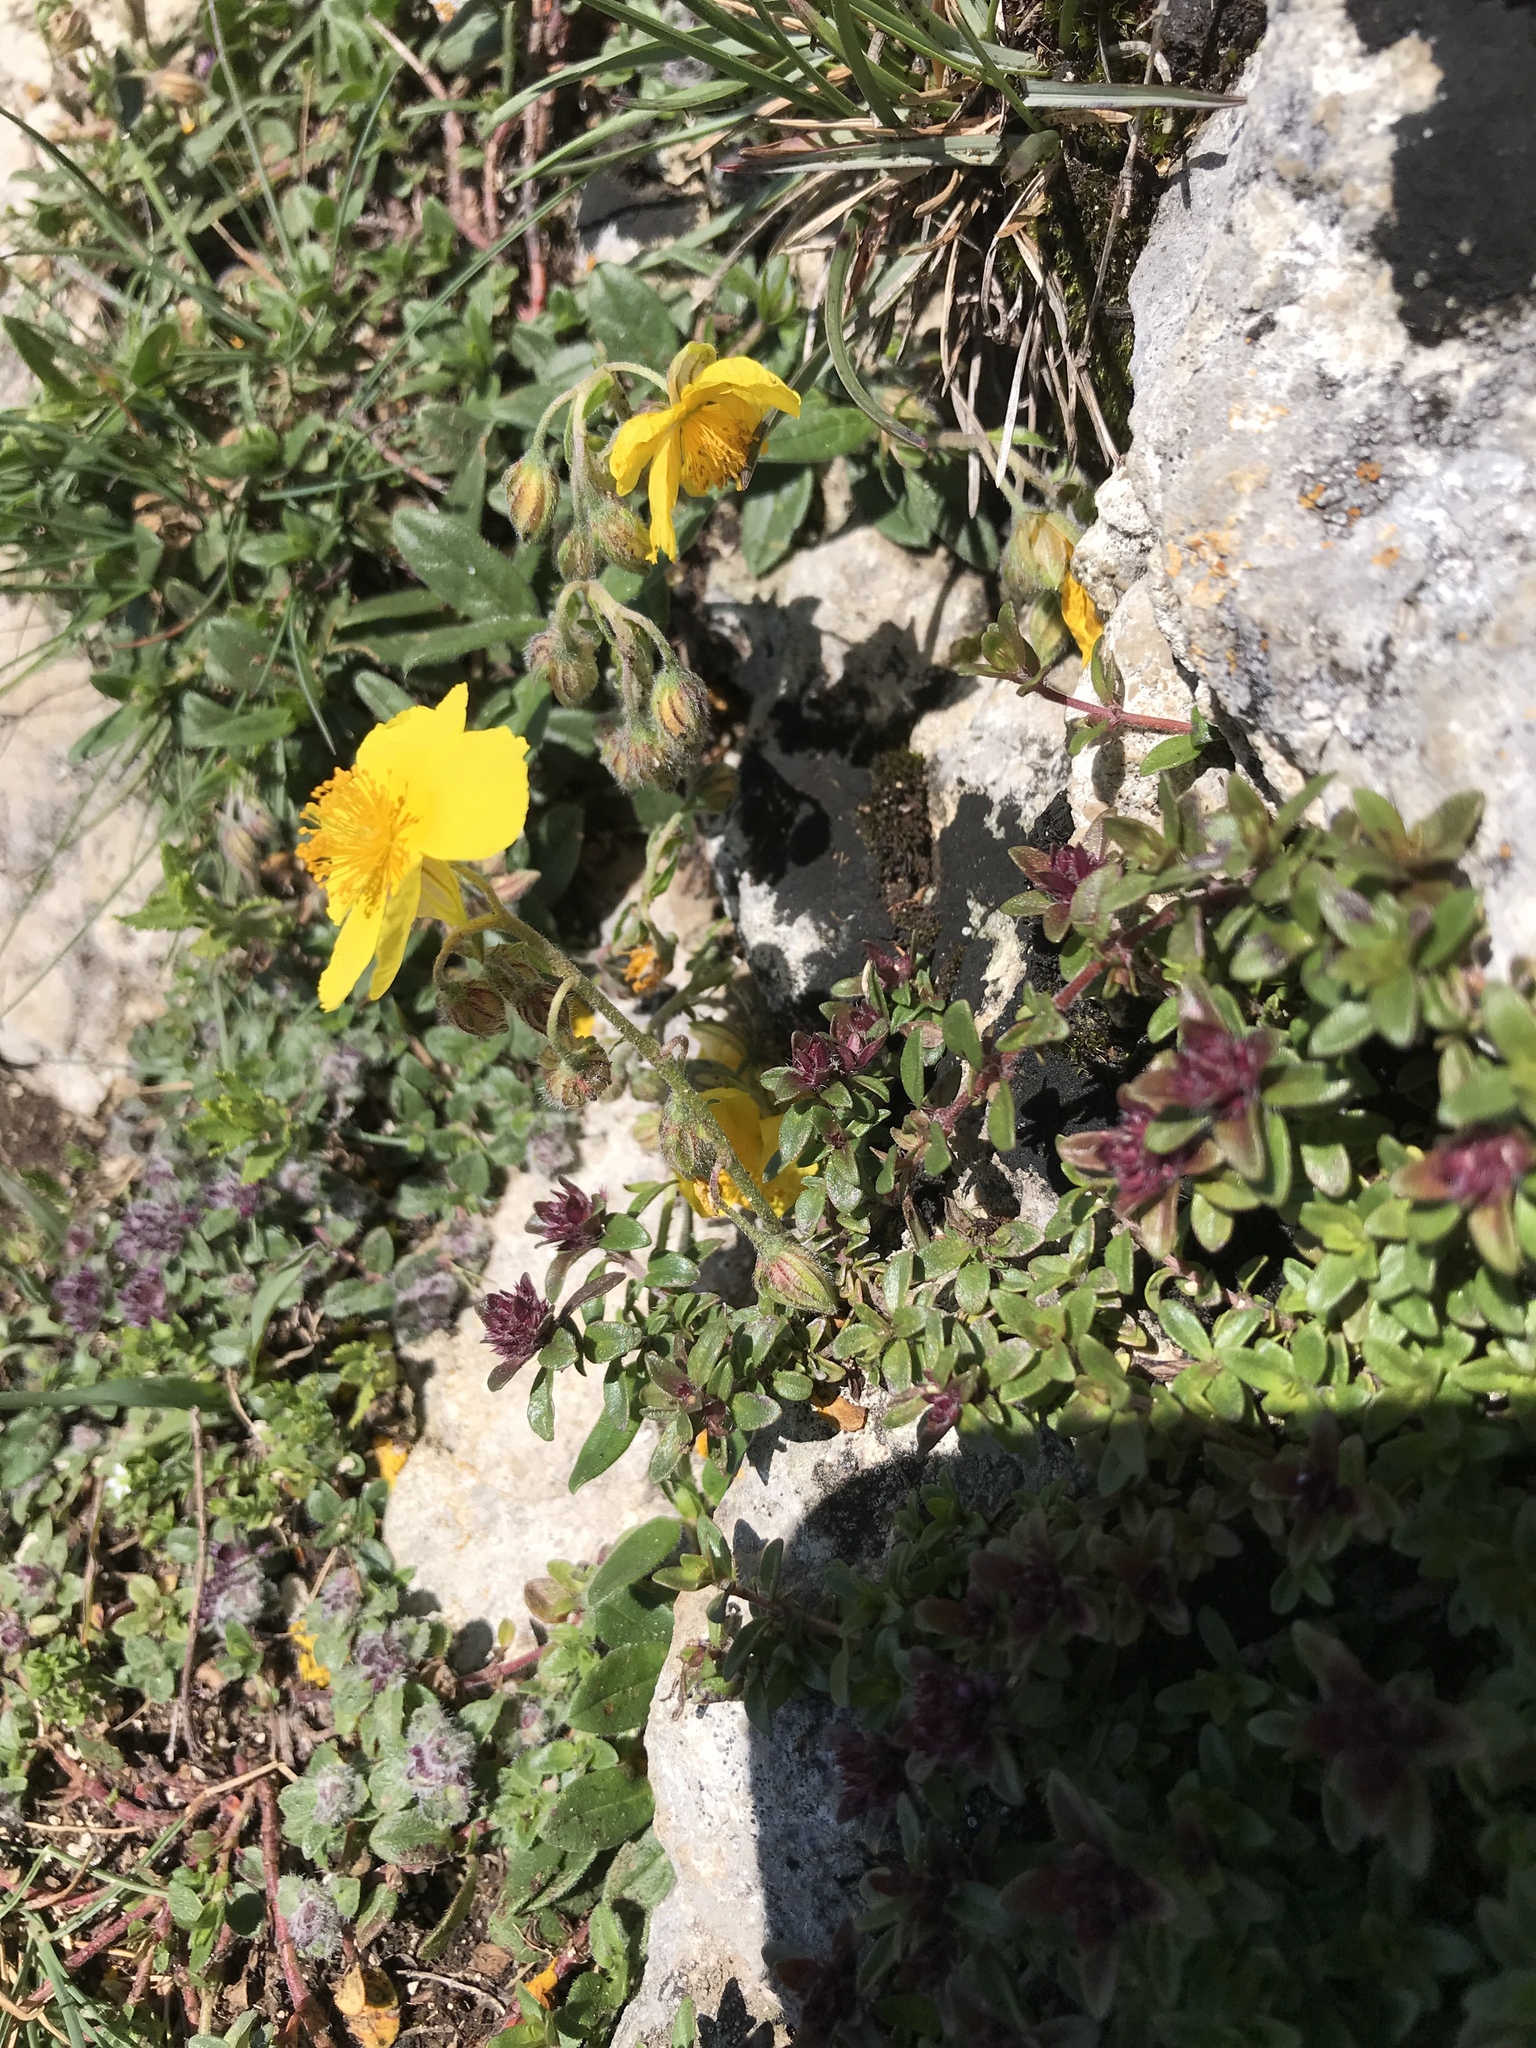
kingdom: Plantae
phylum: Tracheophyta
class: Magnoliopsida
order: Malvales
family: Cistaceae
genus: Helianthemum
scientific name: Helianthemum nummularium
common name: Common rock-rose
